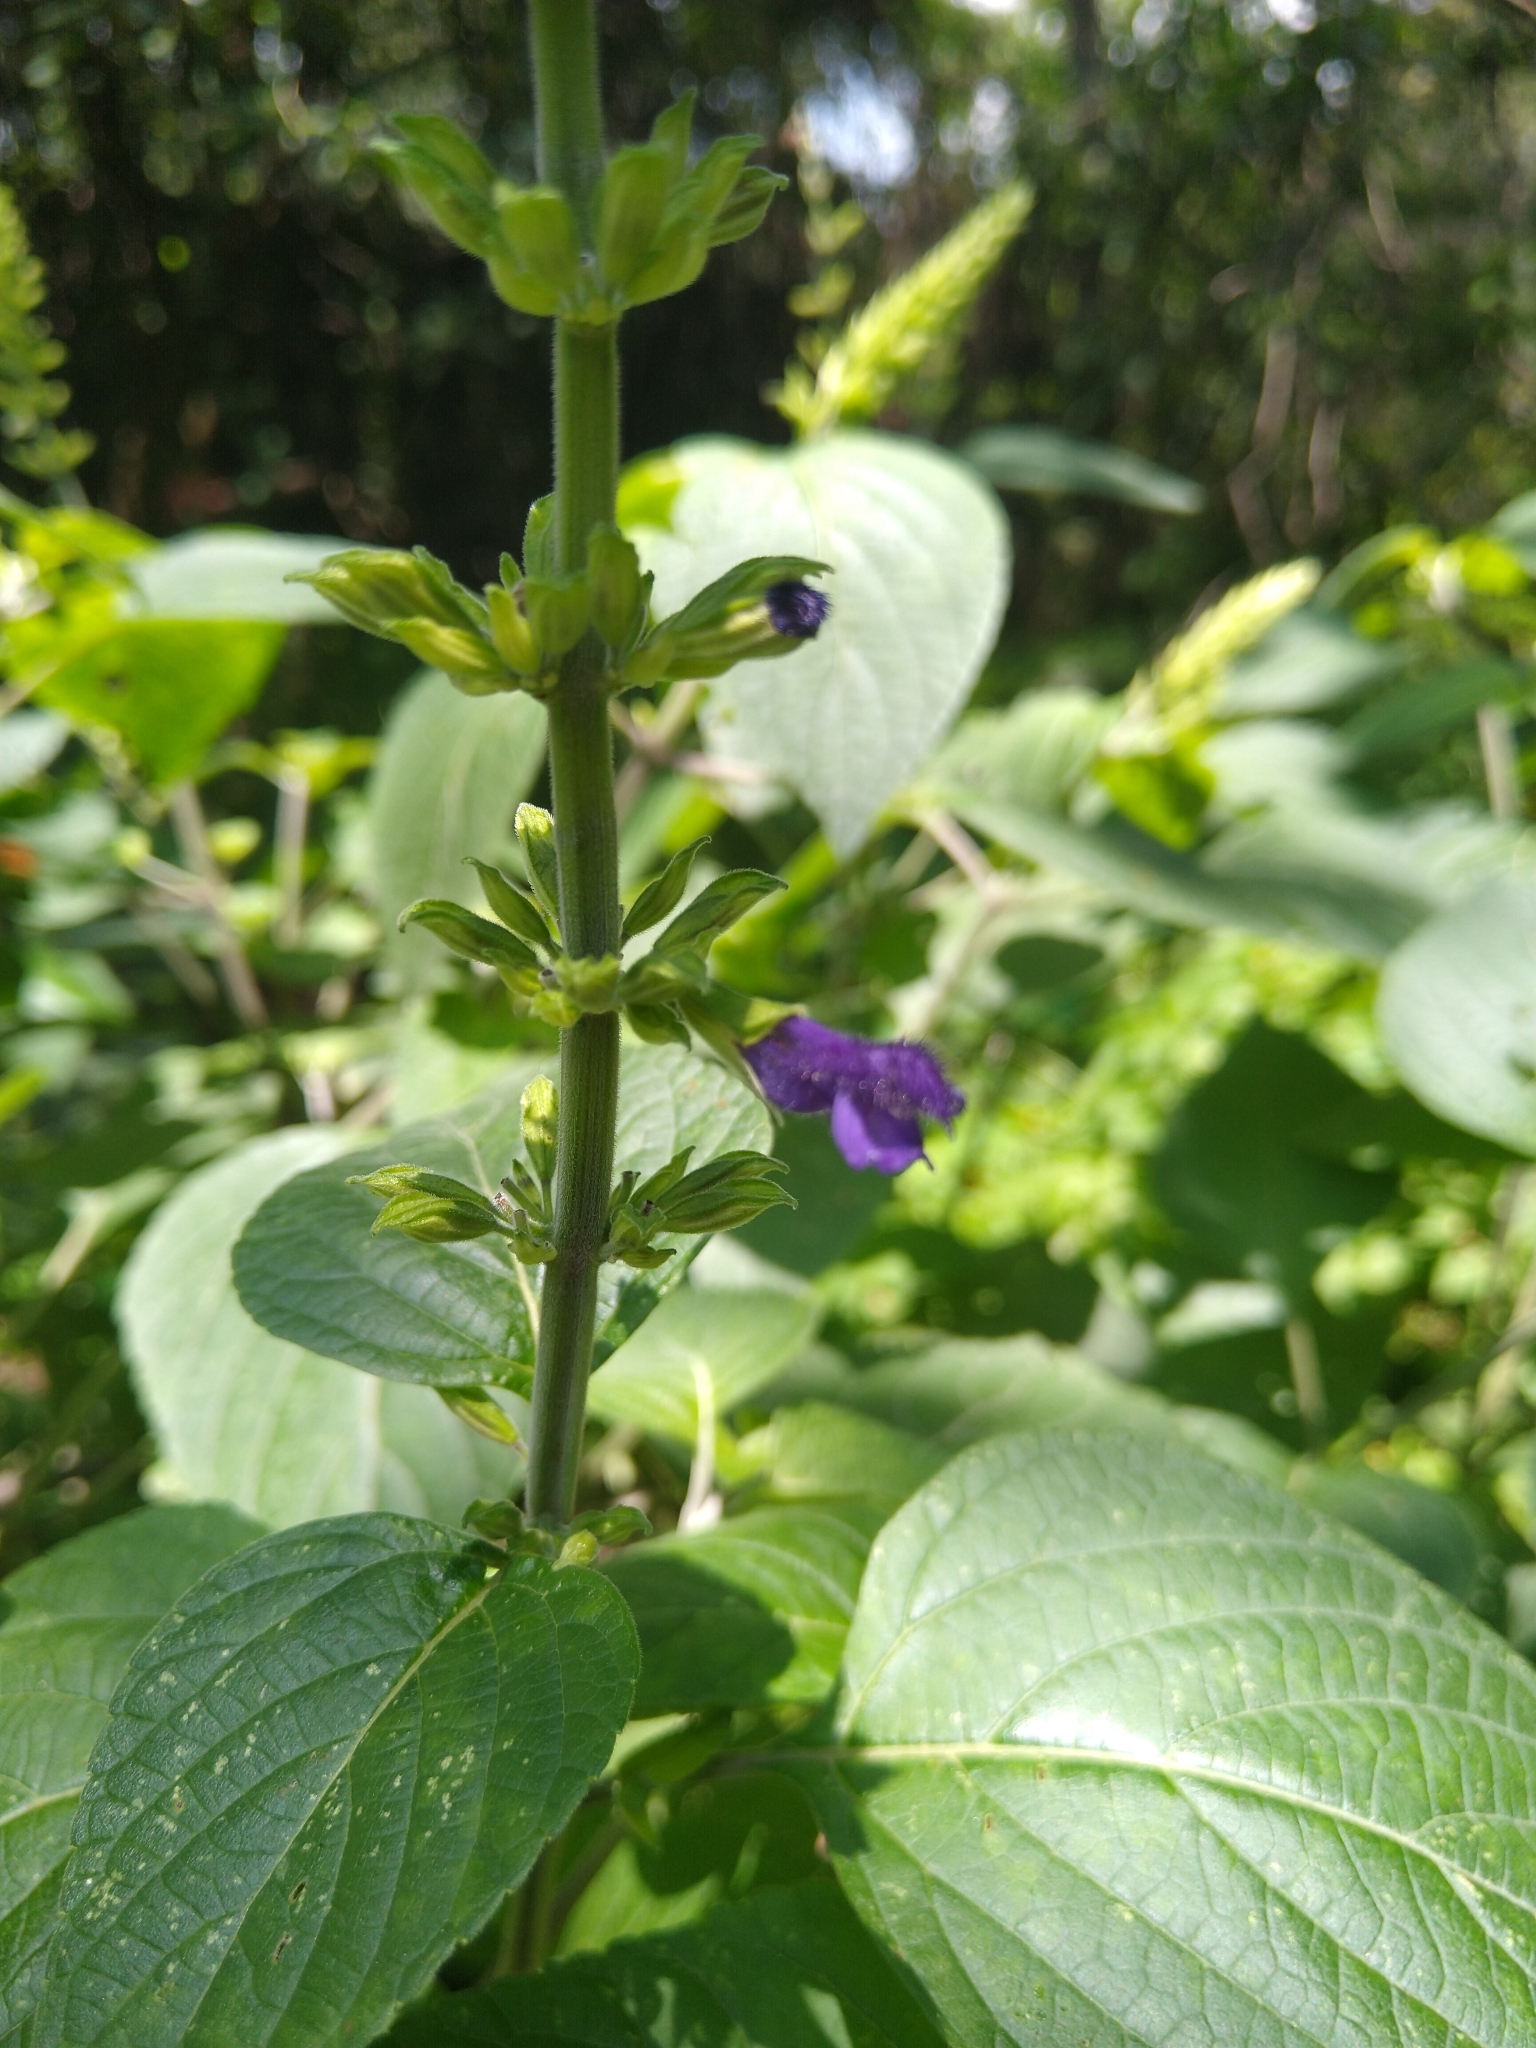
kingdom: Plantae
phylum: Tracheophyta
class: Magnoliopsida
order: Lamiales
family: Lamiaceae
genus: Salvia
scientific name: Salvia mexicana
